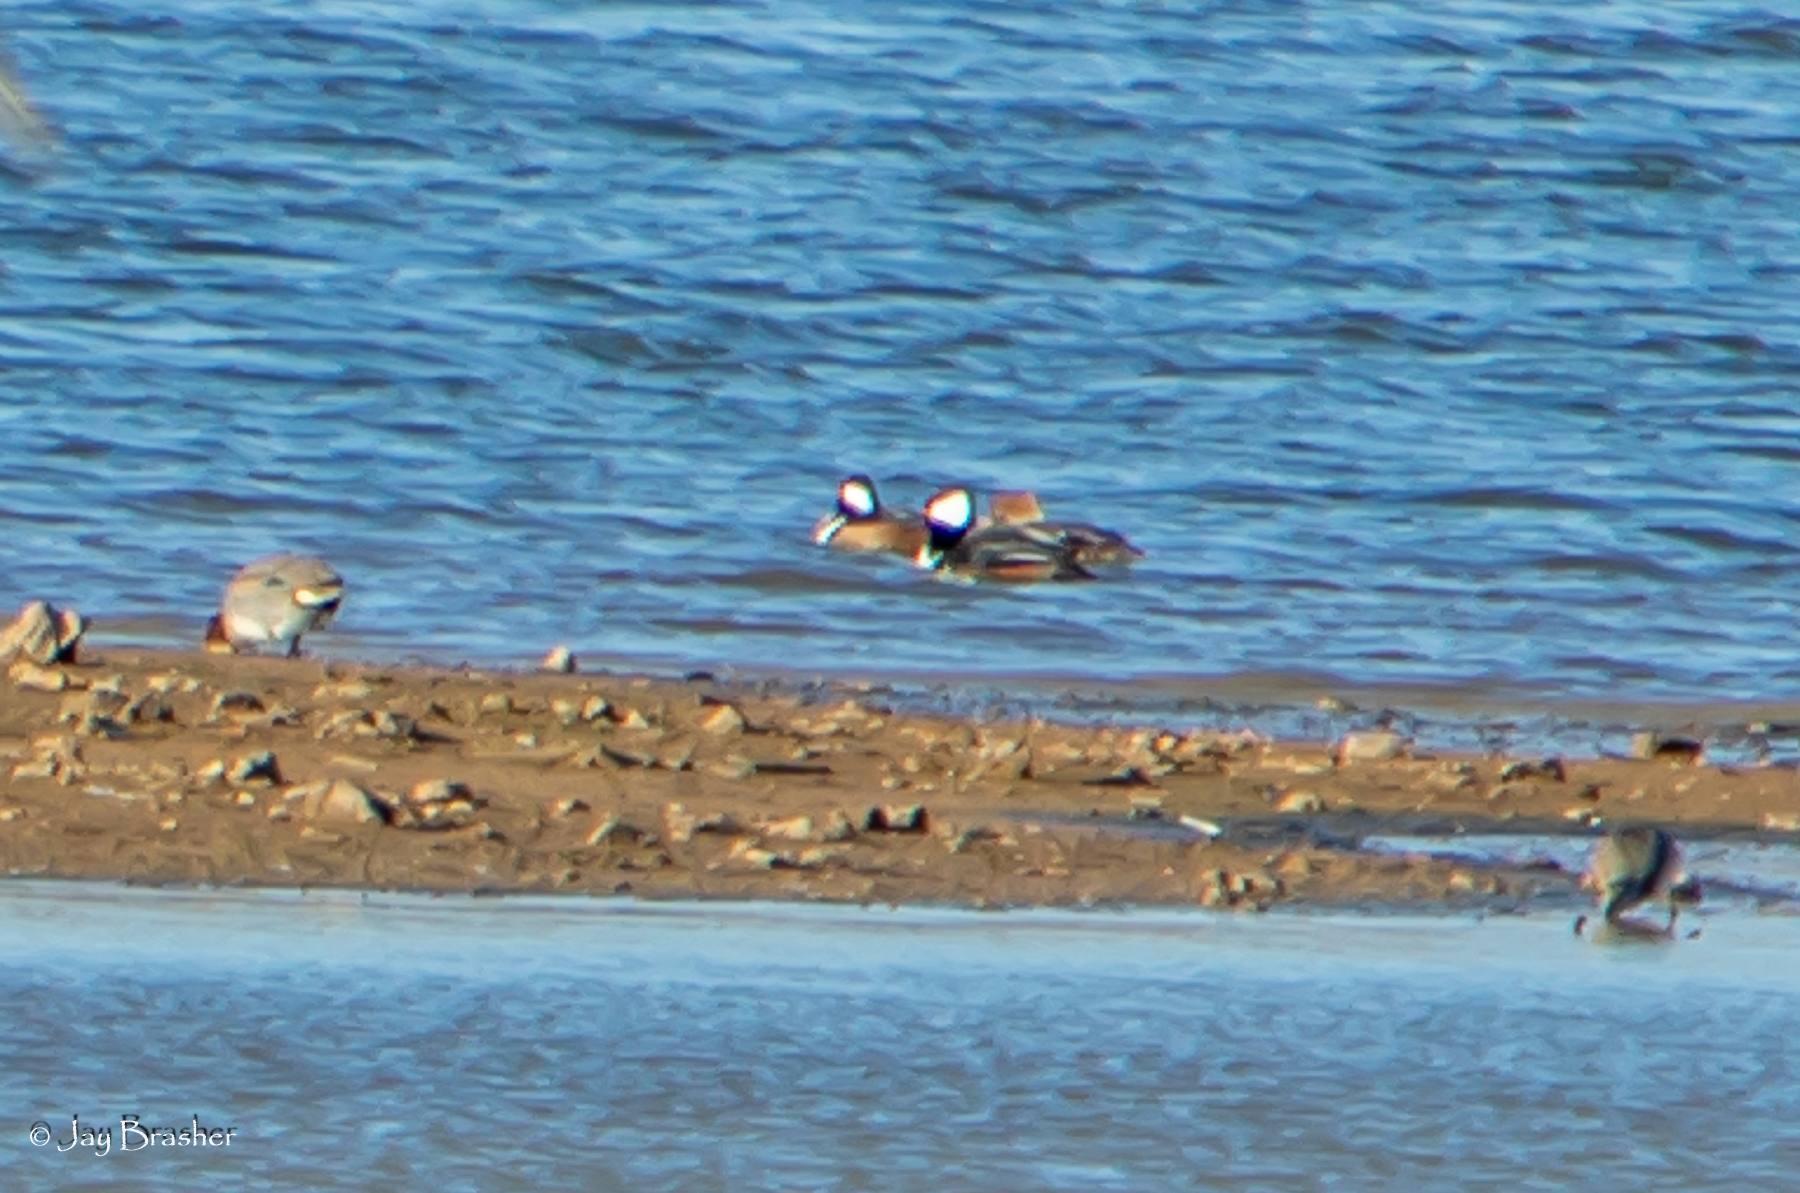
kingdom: Animalia
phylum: Chordata
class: Aves
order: Anseriformes
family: Anatidae
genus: Lophodytes
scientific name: Lophodytes cucullatus
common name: Hooded merganser
